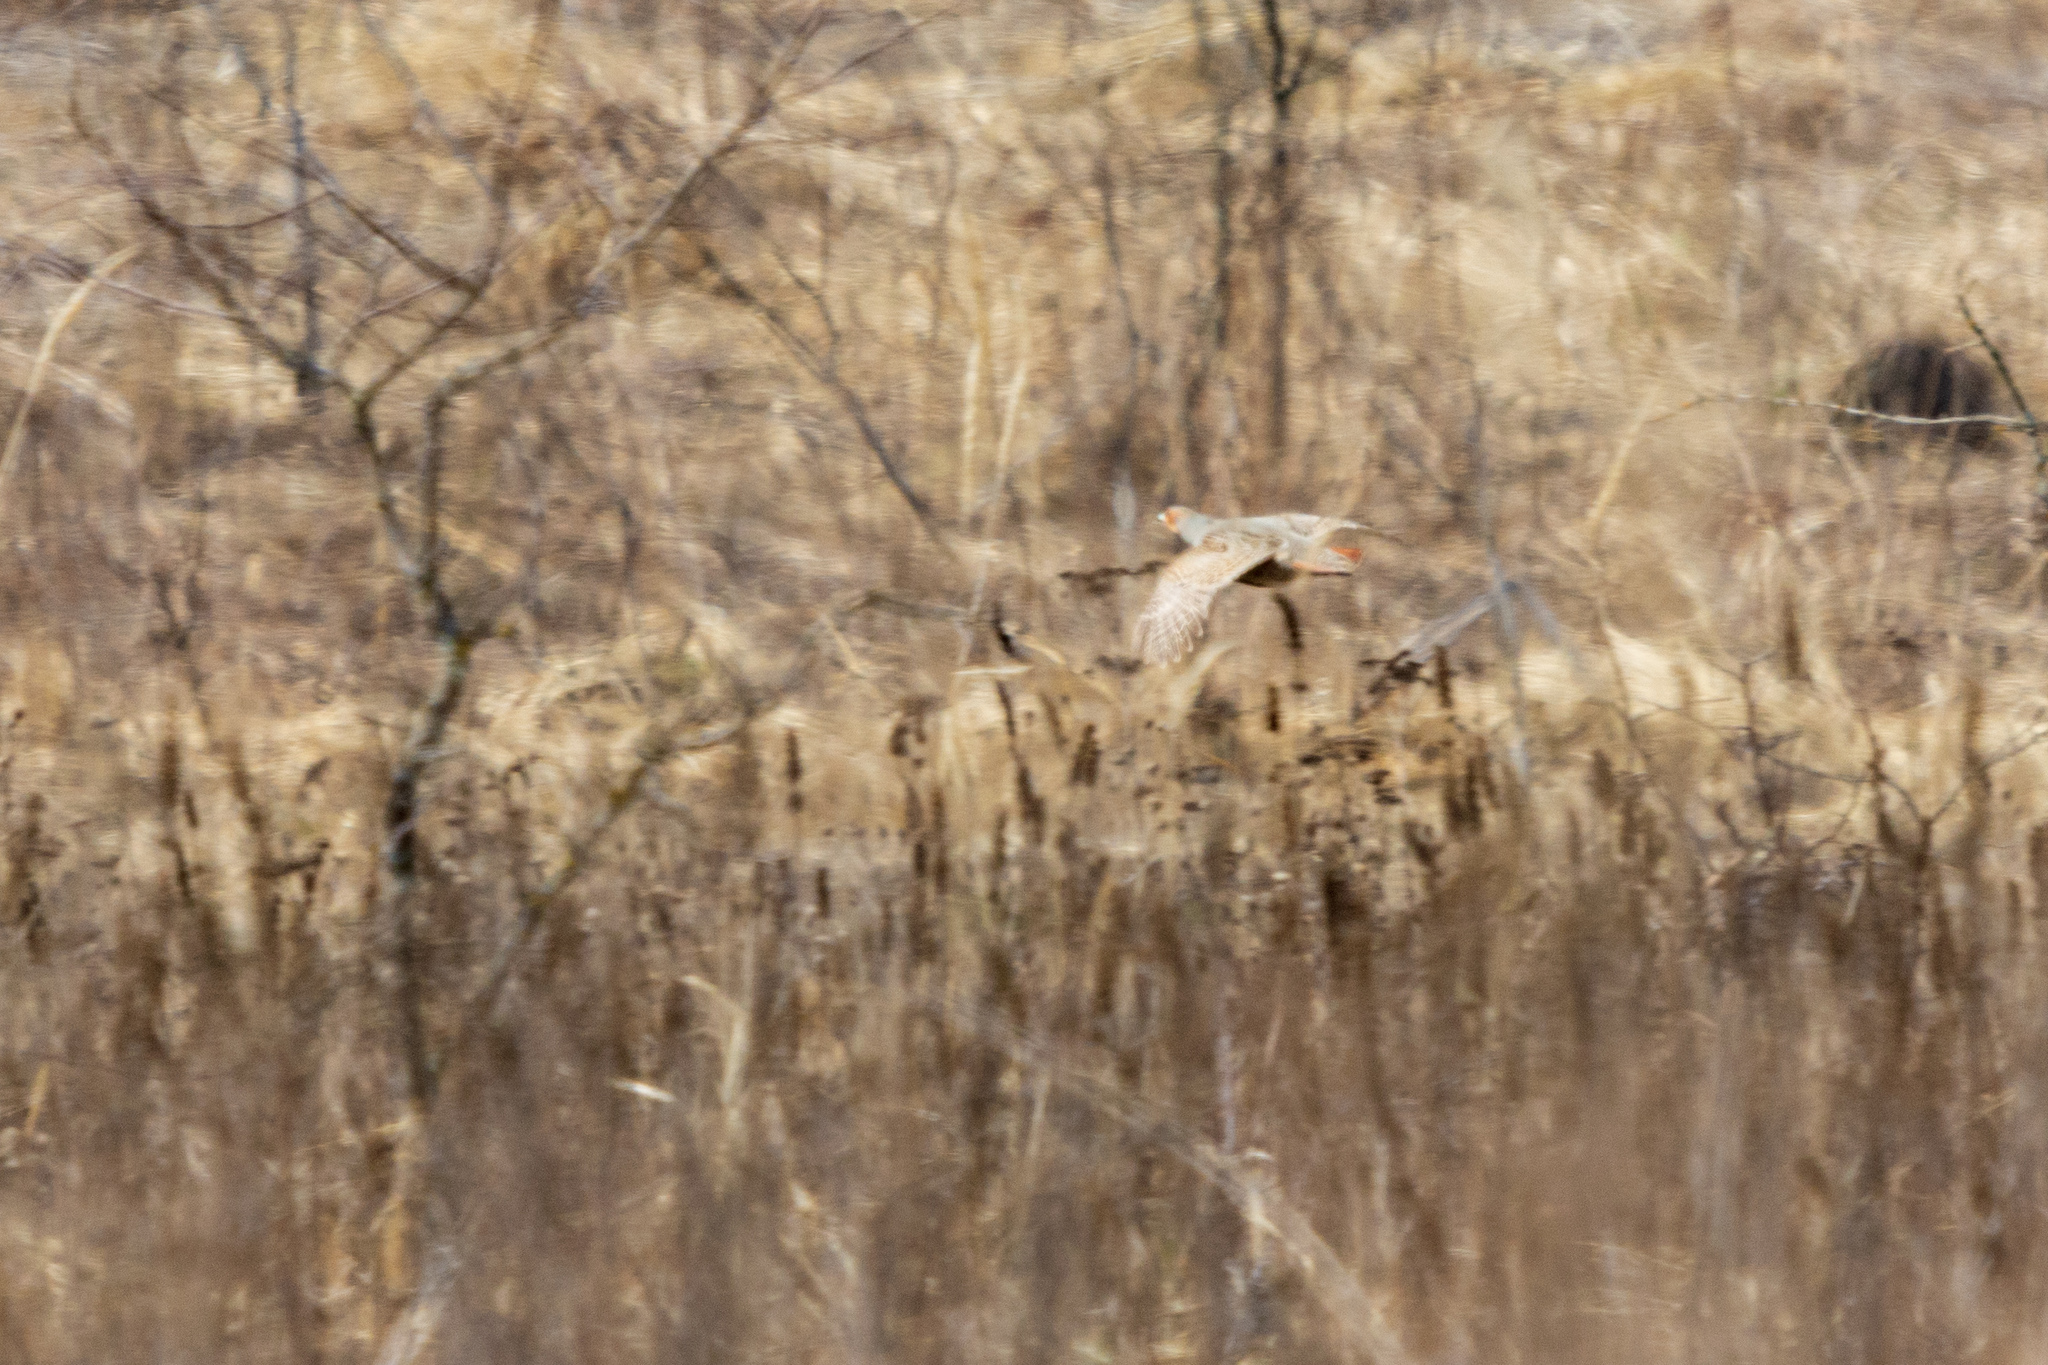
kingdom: Animalia
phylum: Chordata
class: Aves
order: Galliformes
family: Phasianidae
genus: Perdix
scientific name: Perdix perdix
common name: Grey partridge
